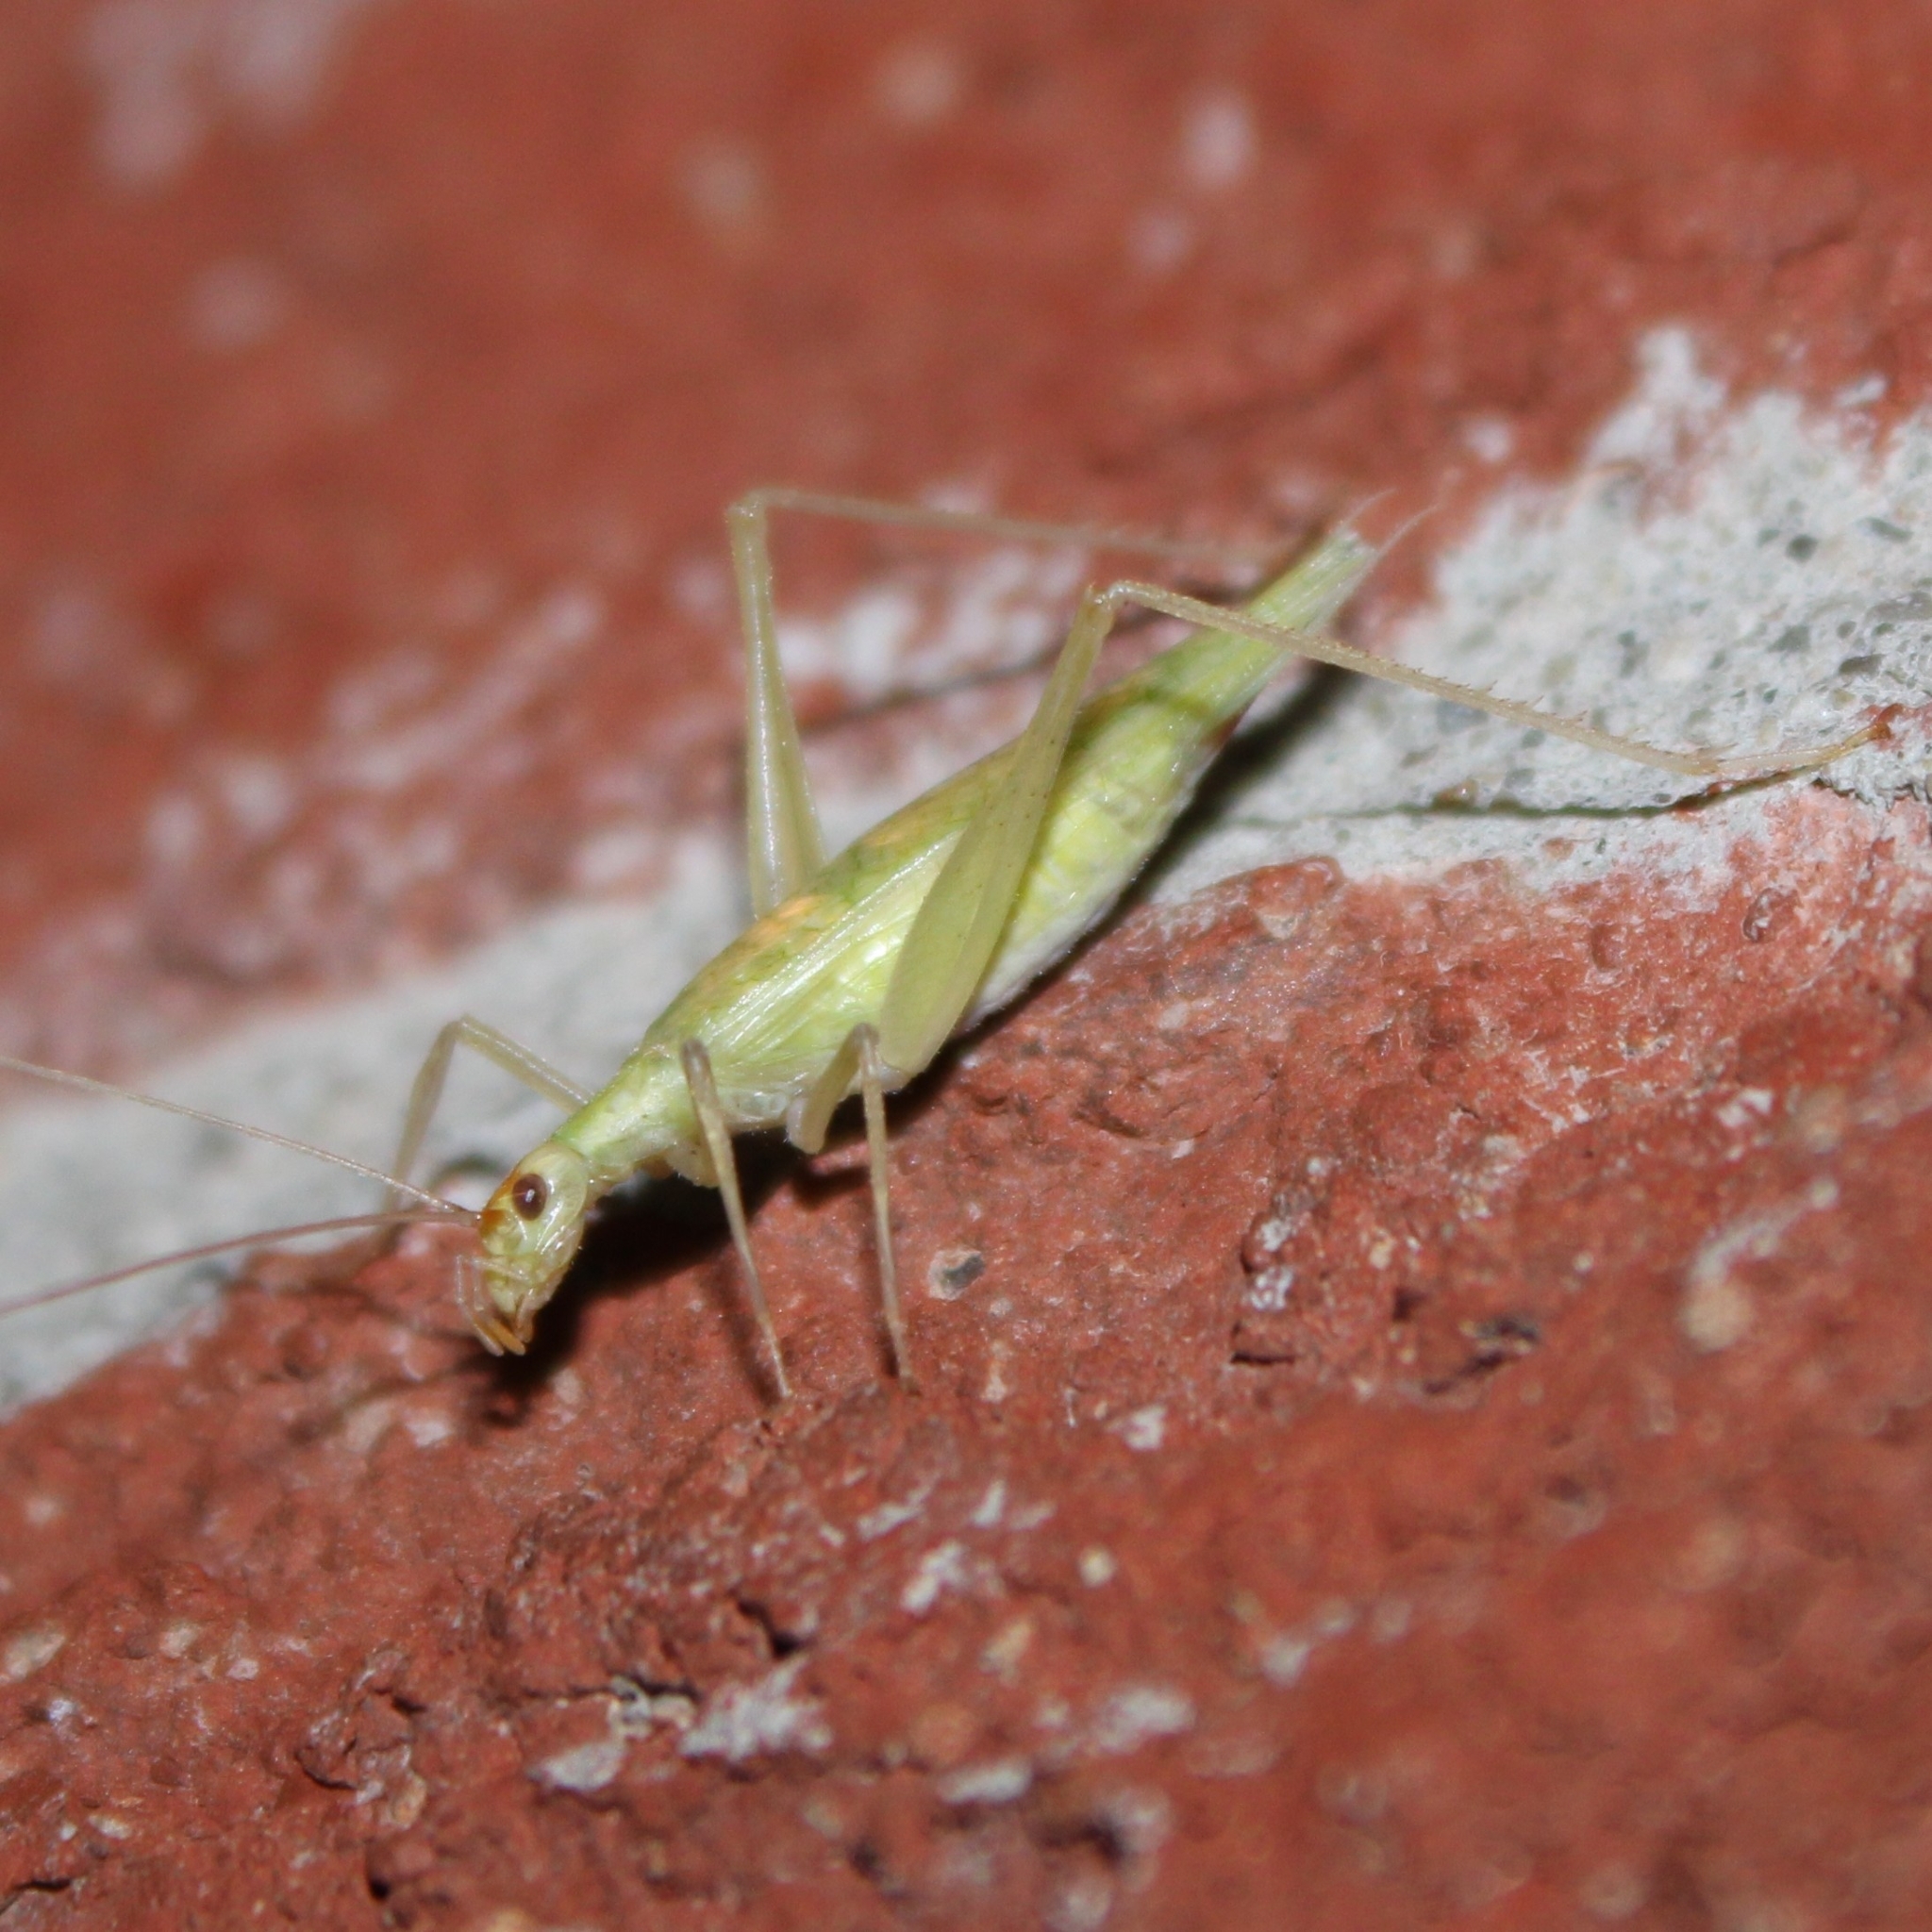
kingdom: Animalia
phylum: Arthropoda
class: Insecta
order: Orthoptera
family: Gryllidae
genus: Oecanthus
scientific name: Oecanthus fultoni
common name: Snowy tree cricket
